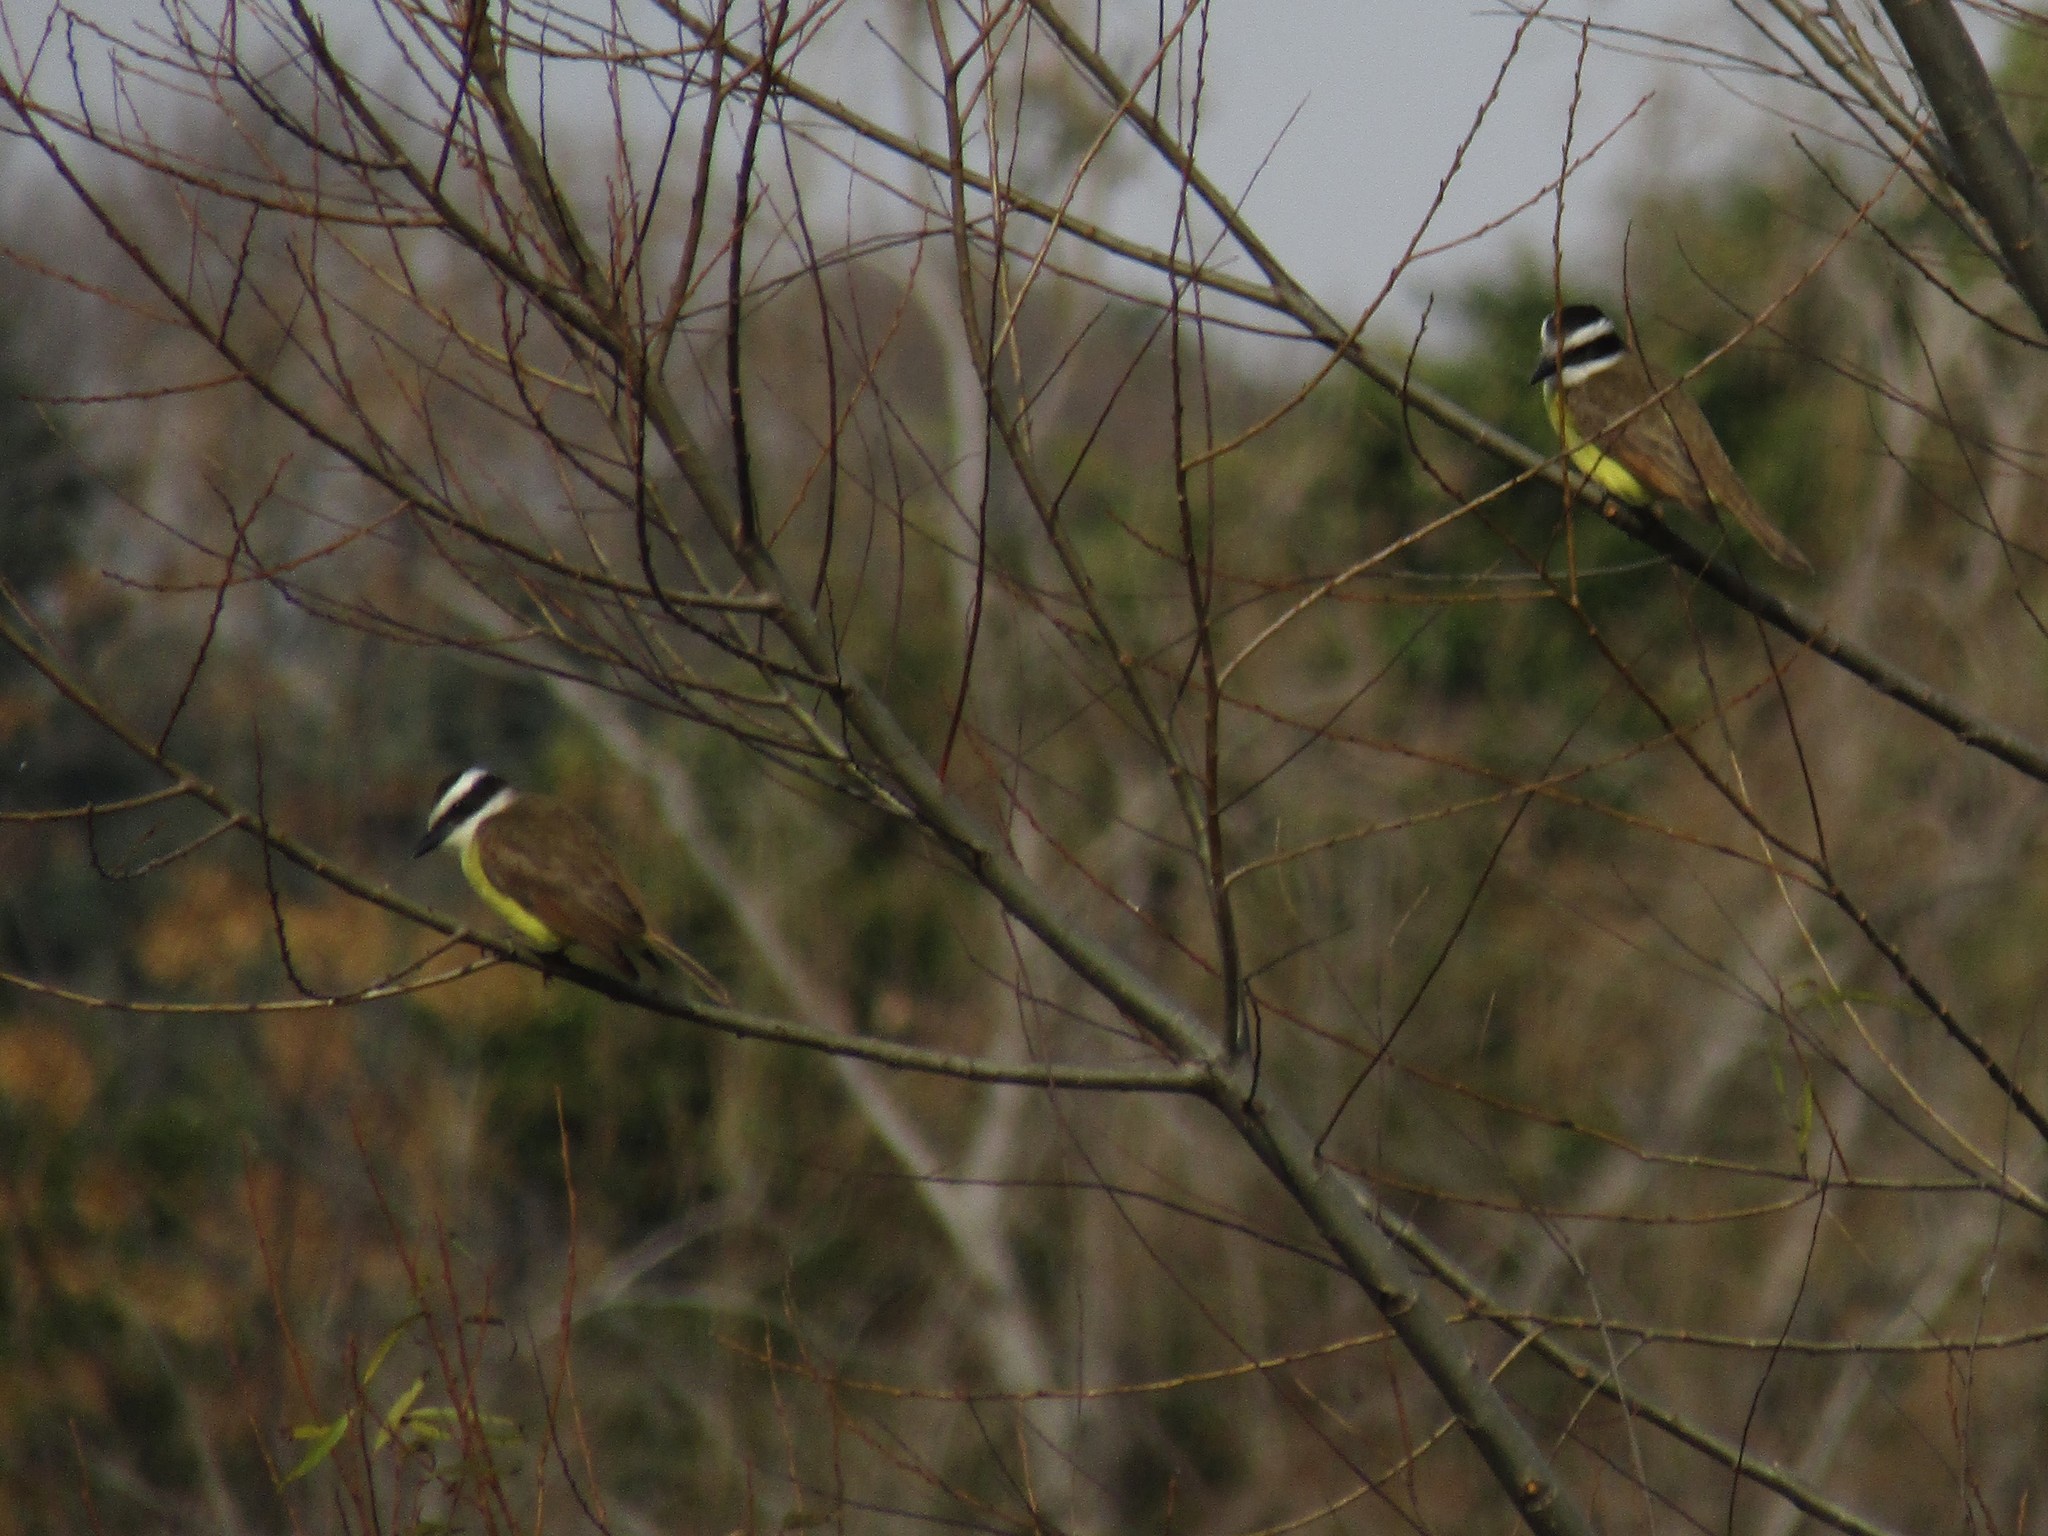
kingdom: Animalia
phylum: Chordata
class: Aves
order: Passeriformes
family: Tyrannidae
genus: Pitangus
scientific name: Pitangus sulphuratus
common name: Great kiskadee
